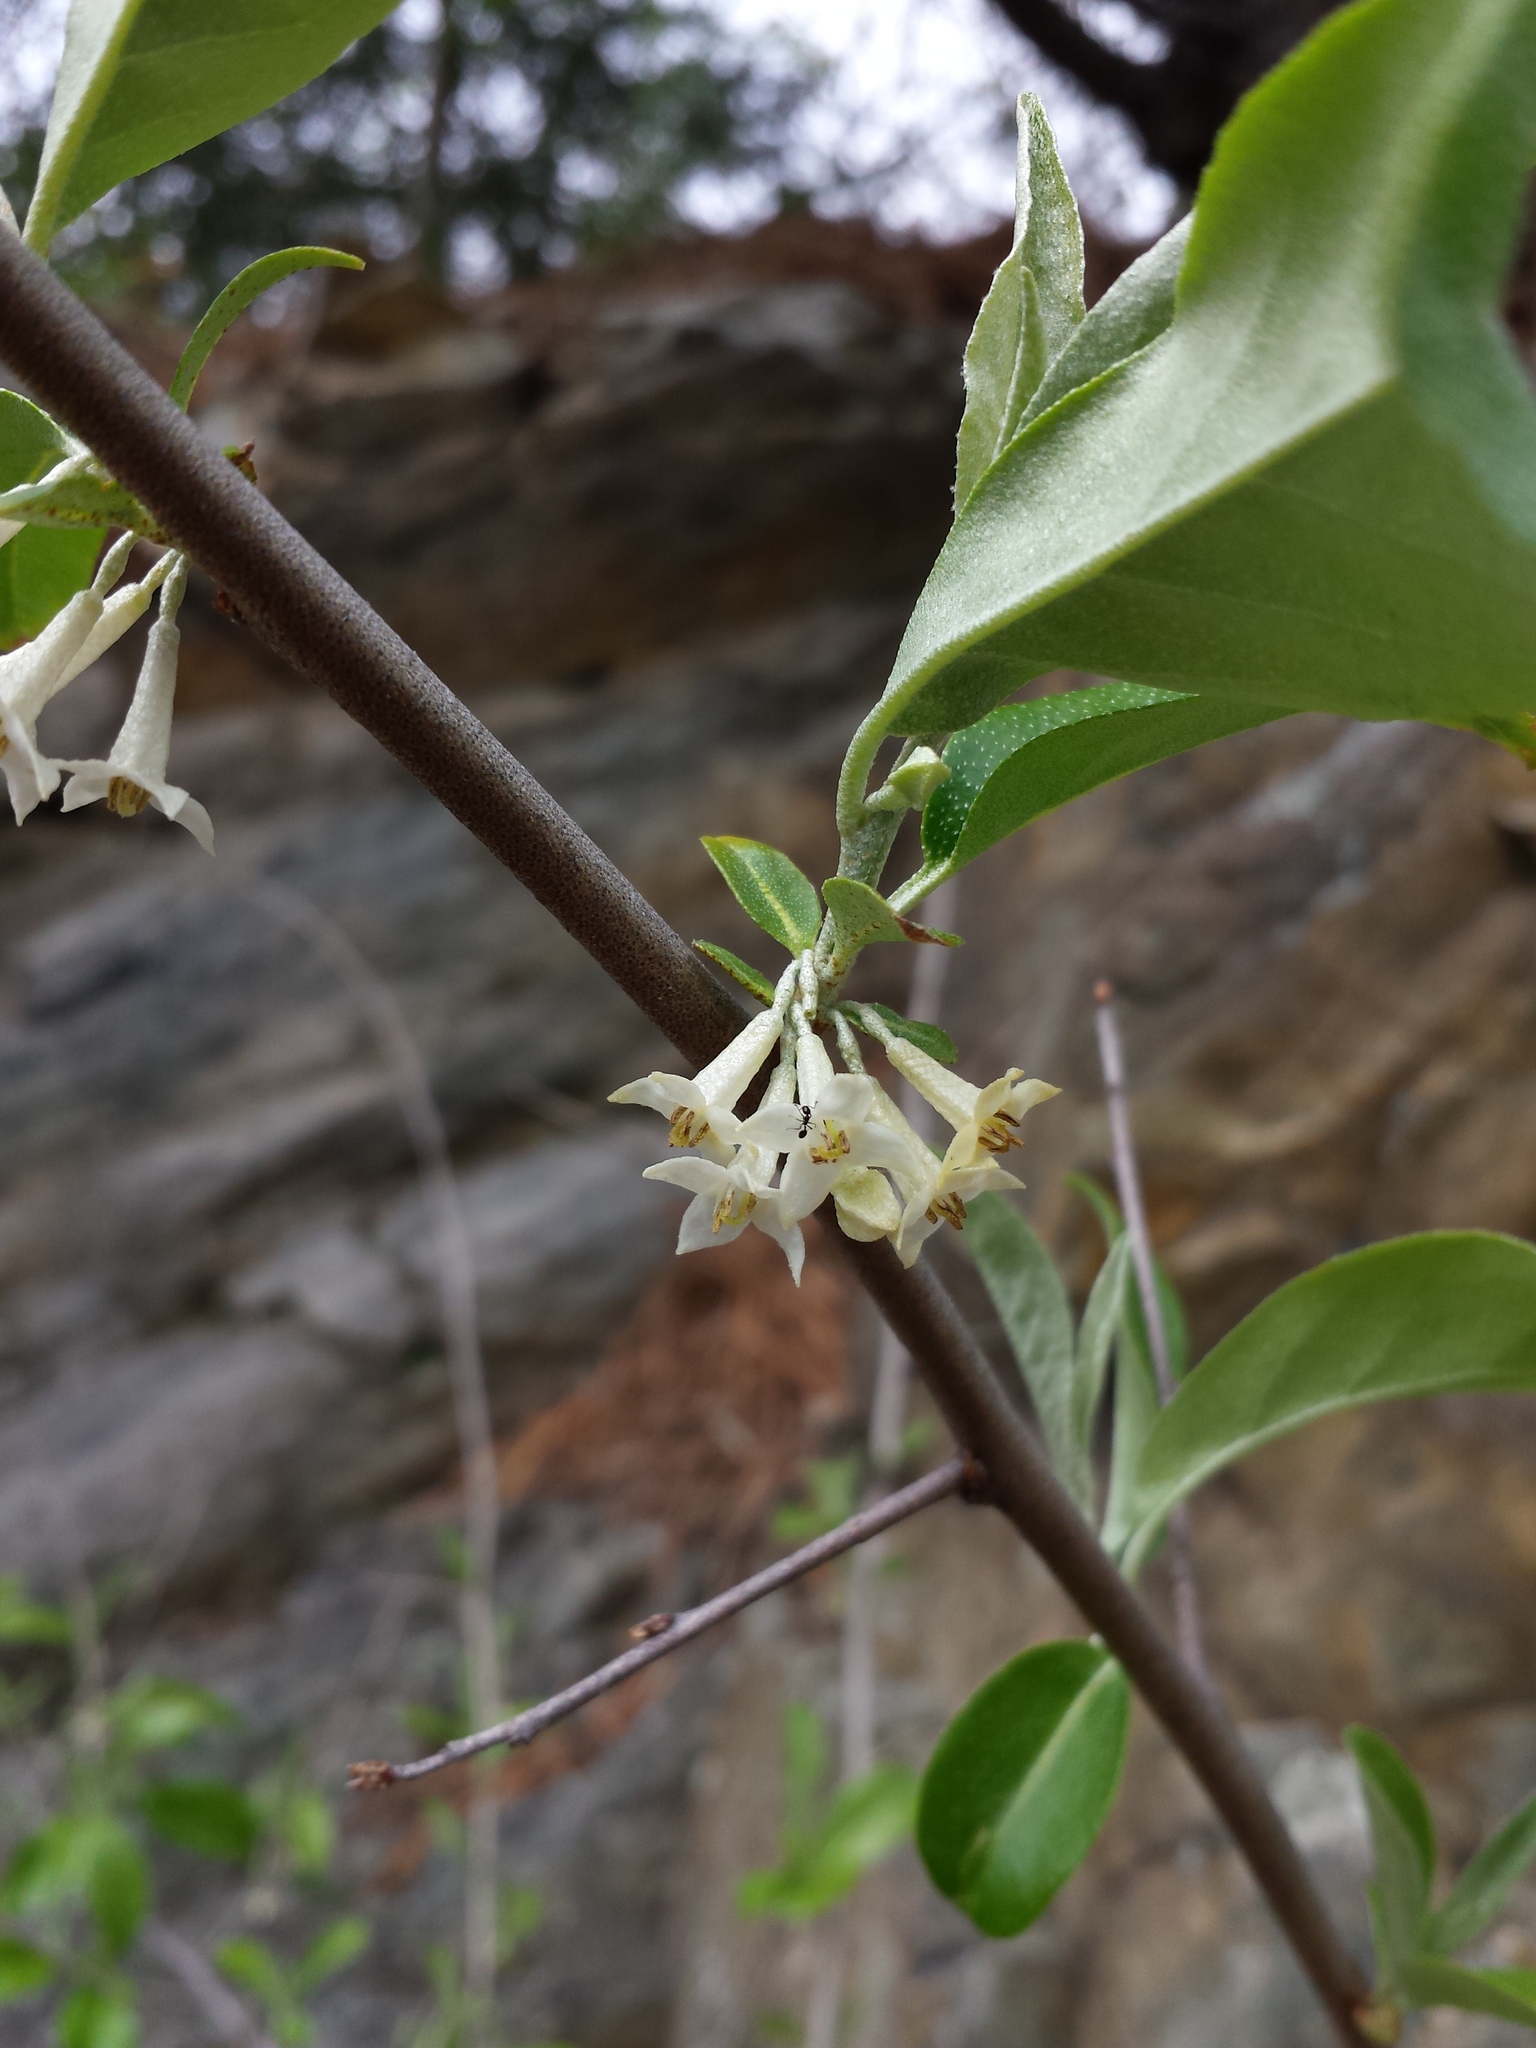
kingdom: Plantae
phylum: Tracheophyta
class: Magnoliopsida
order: Rosales
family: Elaeagnaceae
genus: Elaeagnus
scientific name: Elaeagnus umbellata
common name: Autumn olive
